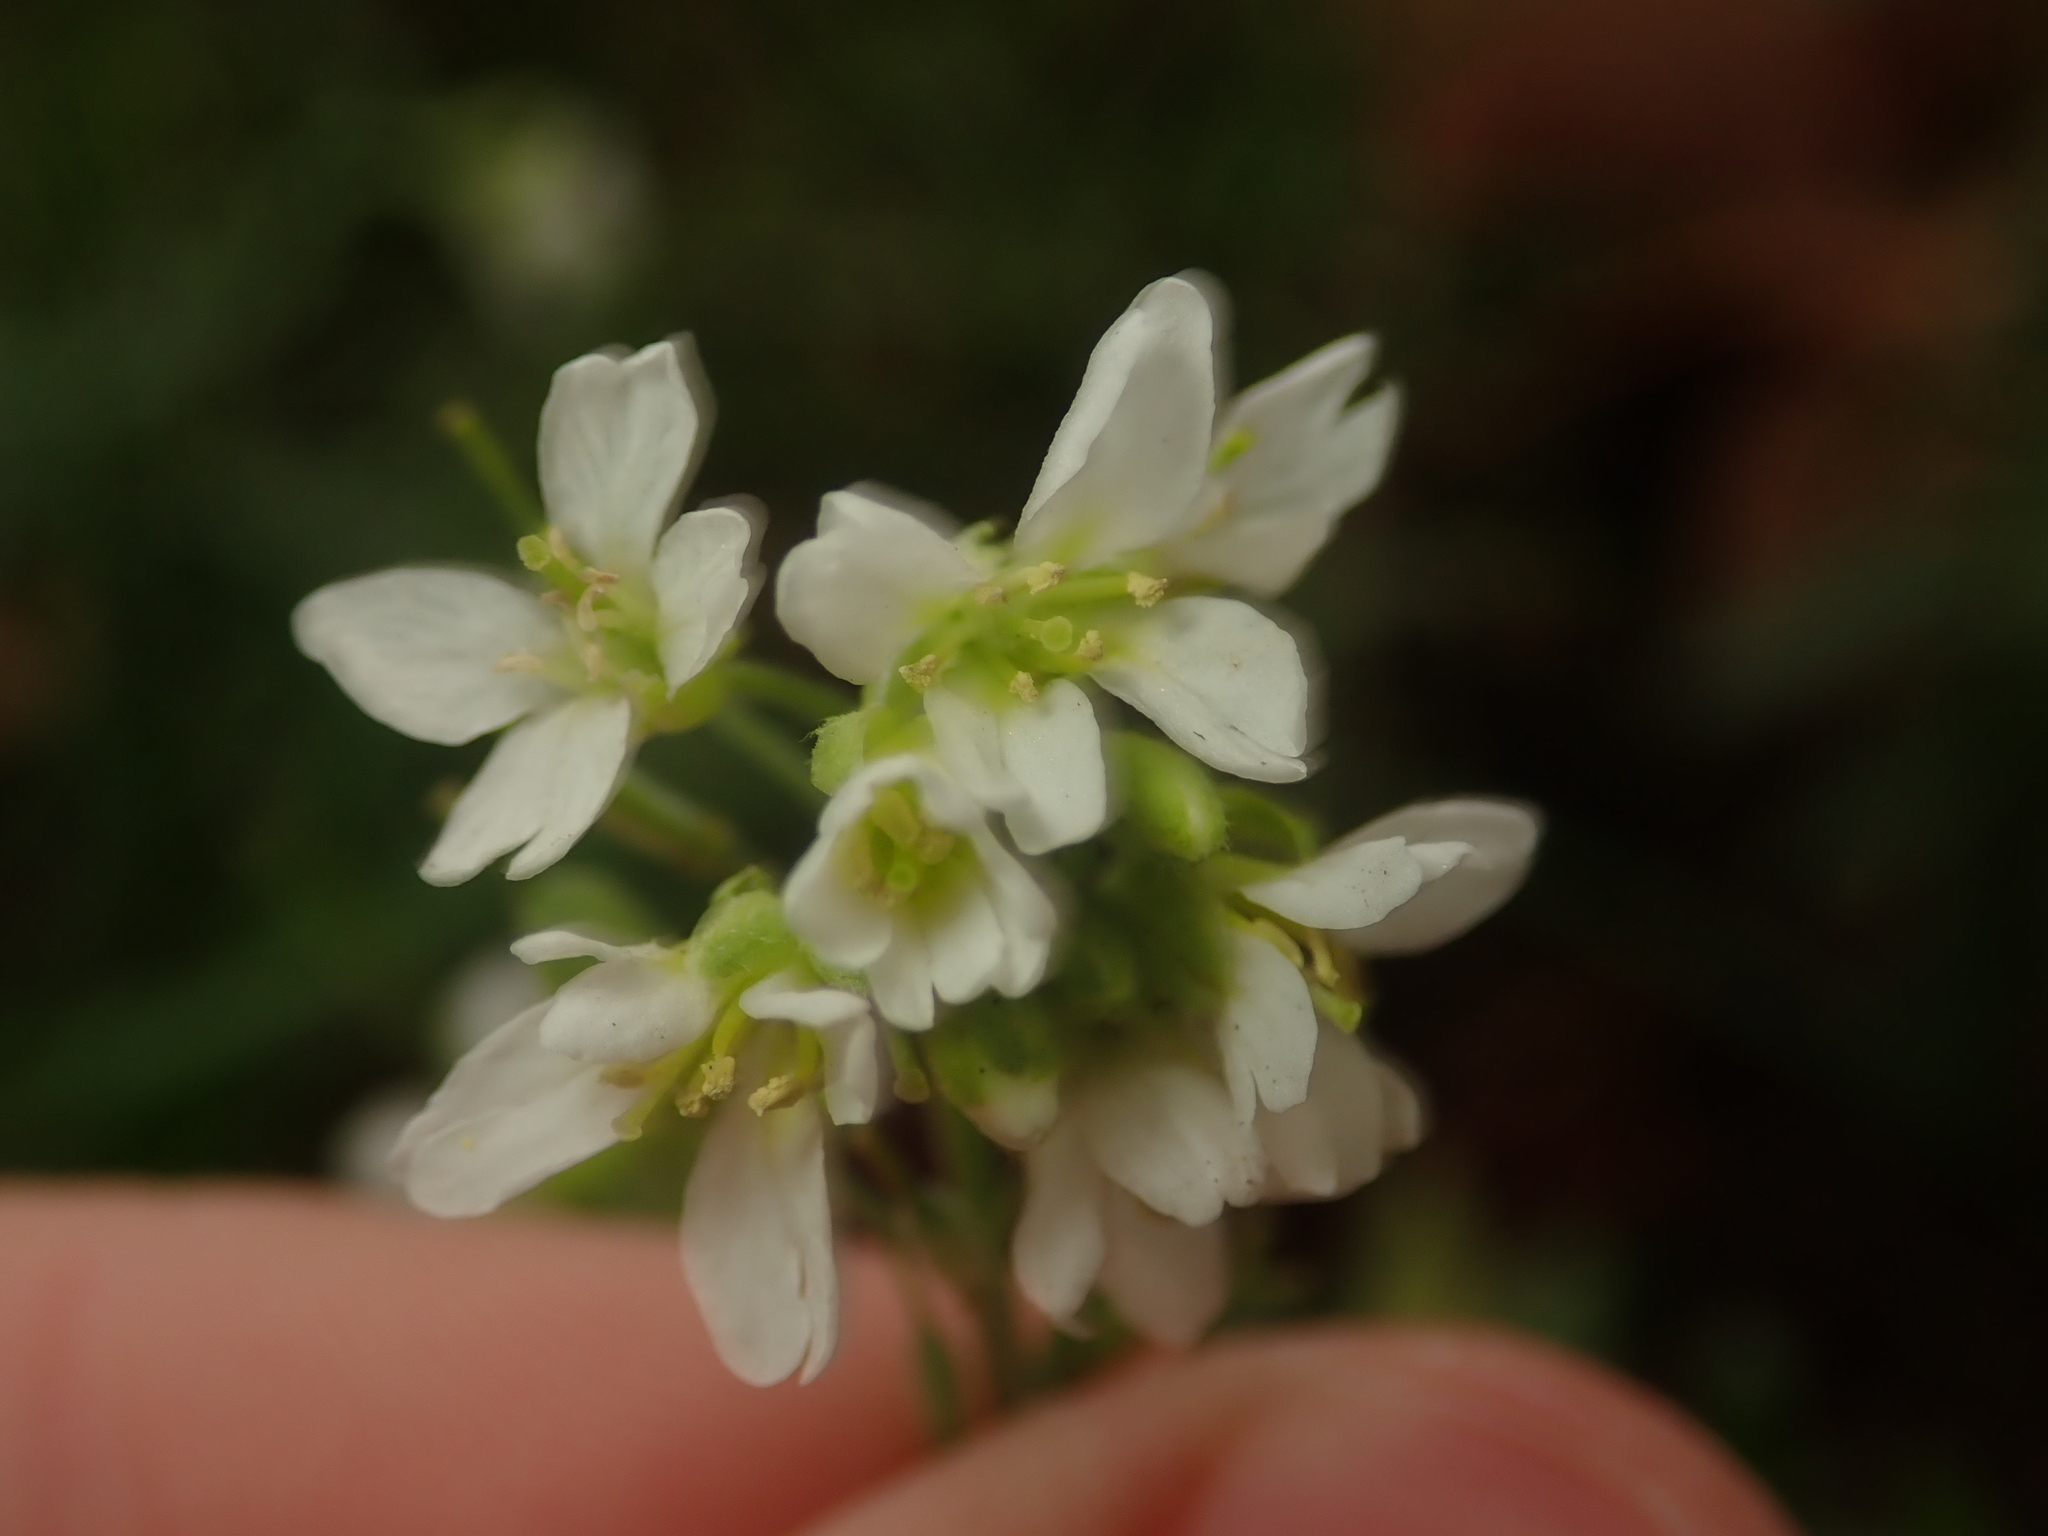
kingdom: Plantae
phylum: Tracheophyta
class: Magnoliopsida
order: Brassicales
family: Brassicaceae
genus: Berteroa
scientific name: Berteroa incana
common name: Hoary alison
